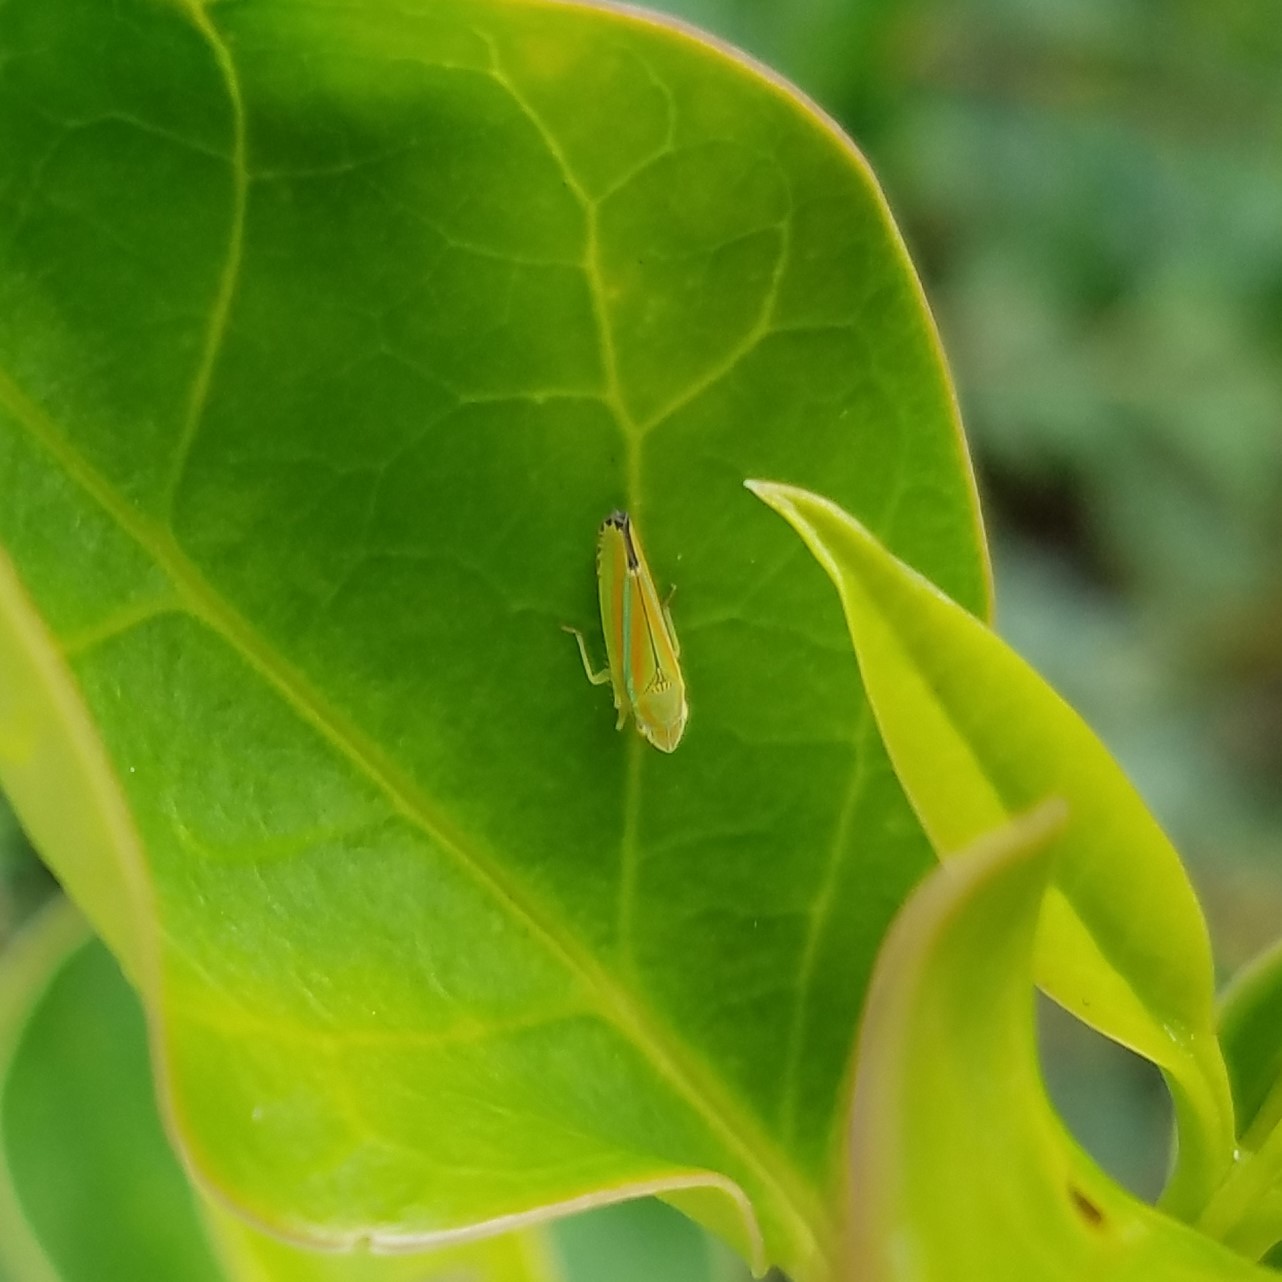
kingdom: Animalia
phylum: Arthropoda
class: Insecta
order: Hemiptera
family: Cicadellidae
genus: Graphocephala
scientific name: Graphocephala versuta
